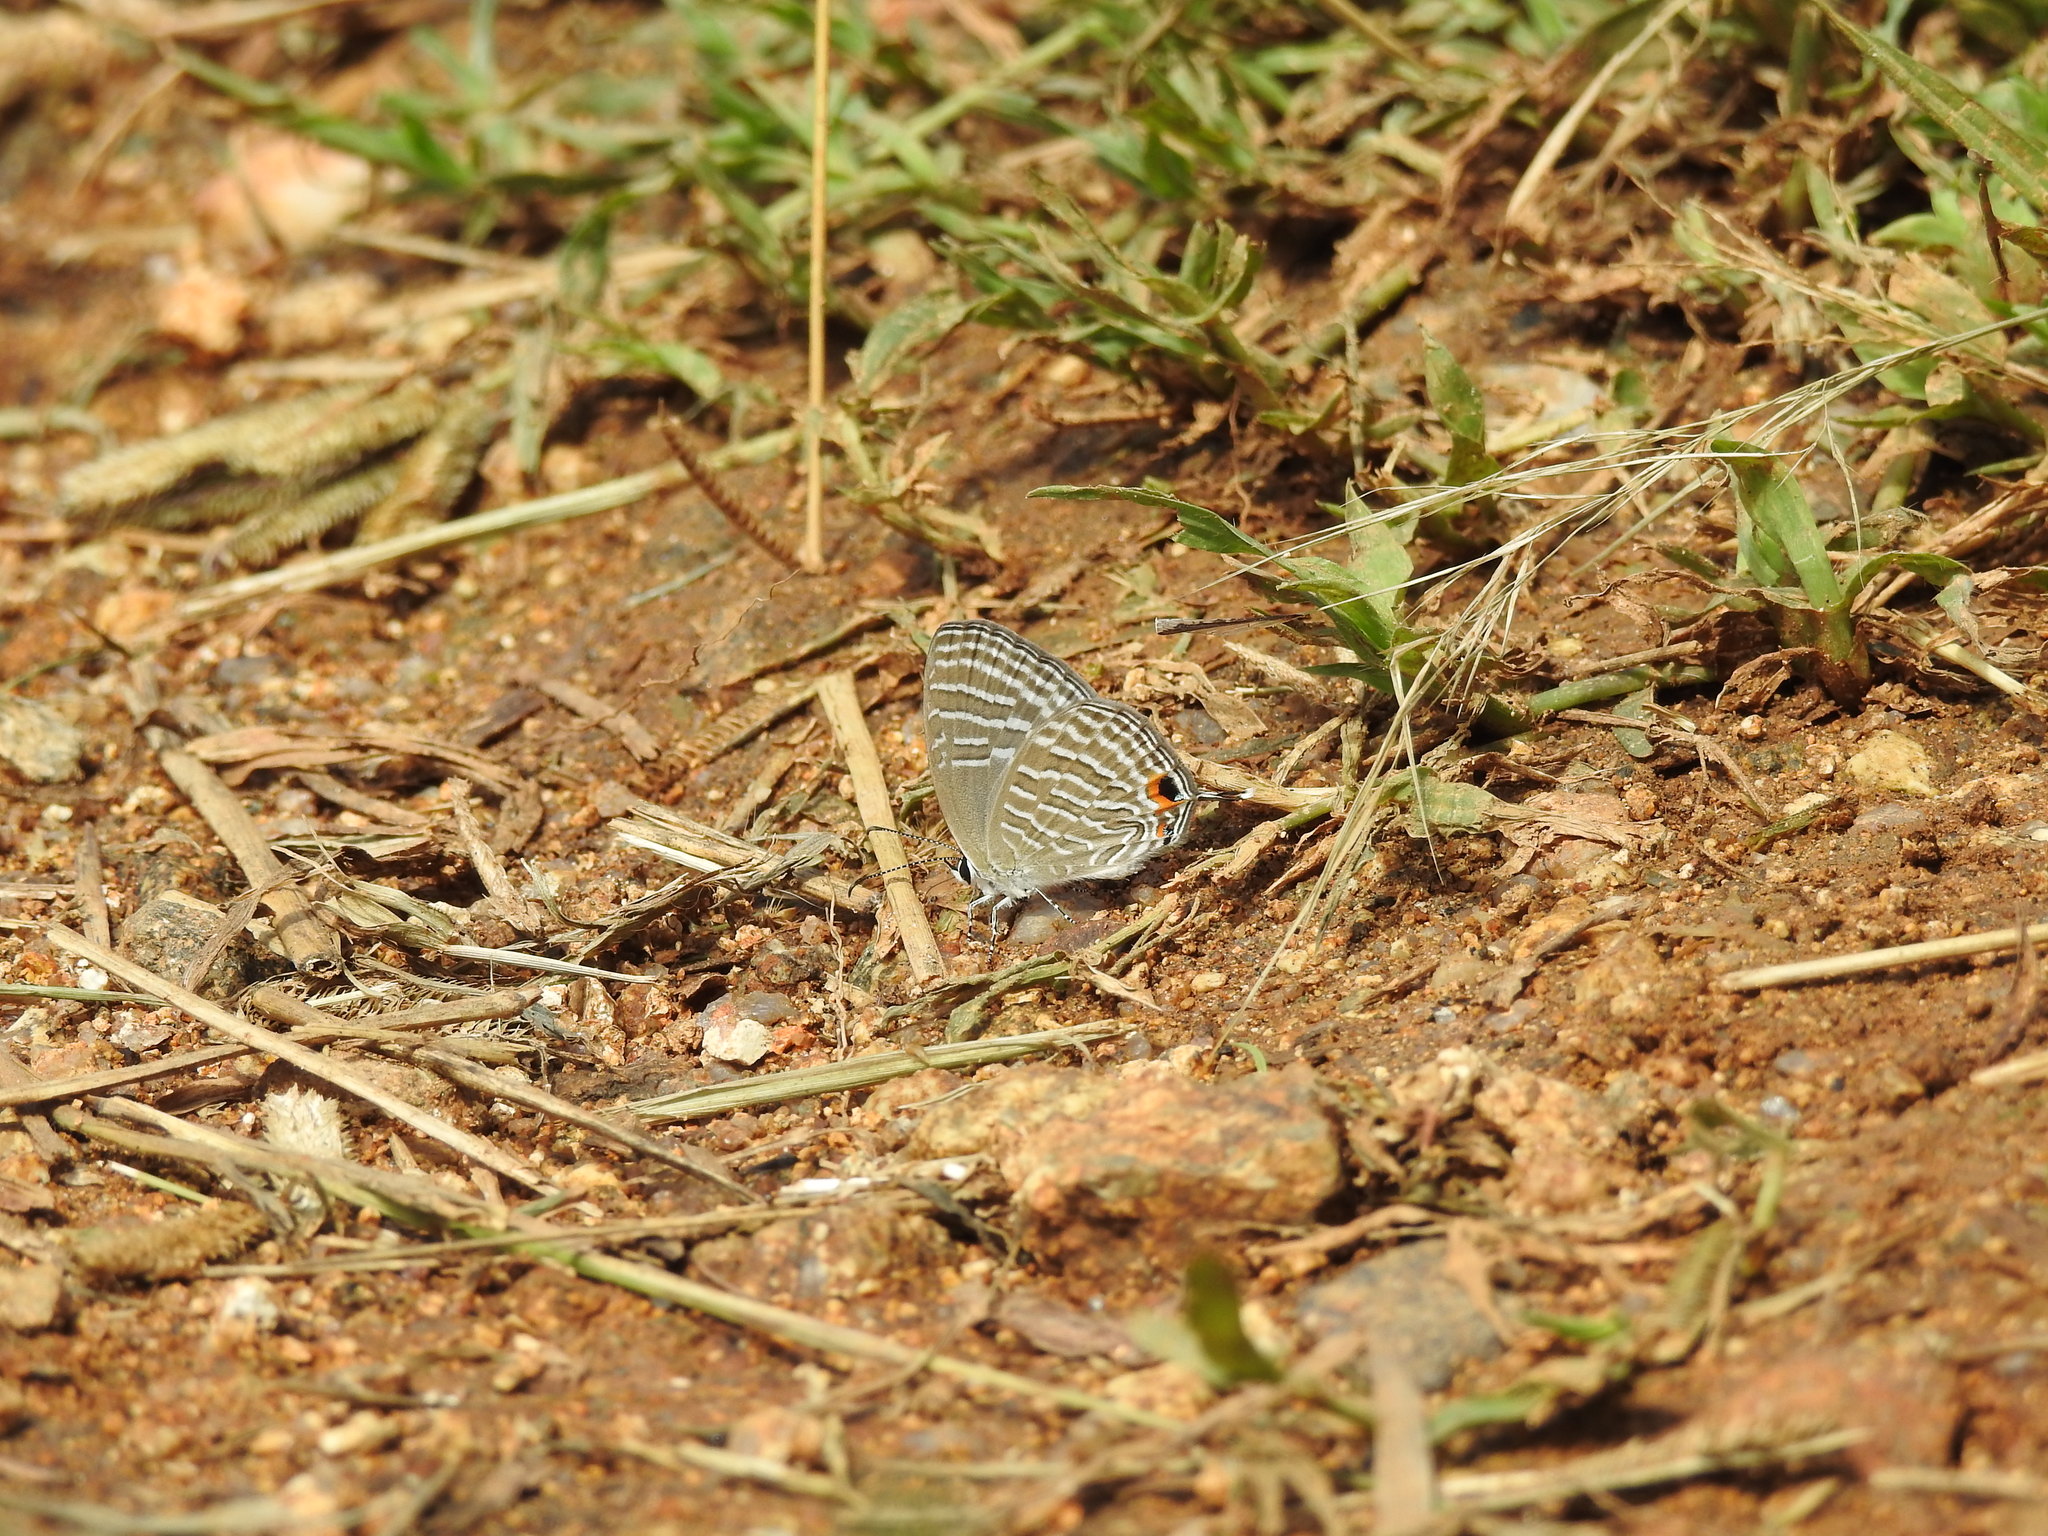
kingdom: Animalia
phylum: Arthropoda
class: Insecta
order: Lepidoptera
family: Lycaenidae
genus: Jamides
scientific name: Jamides celeno
